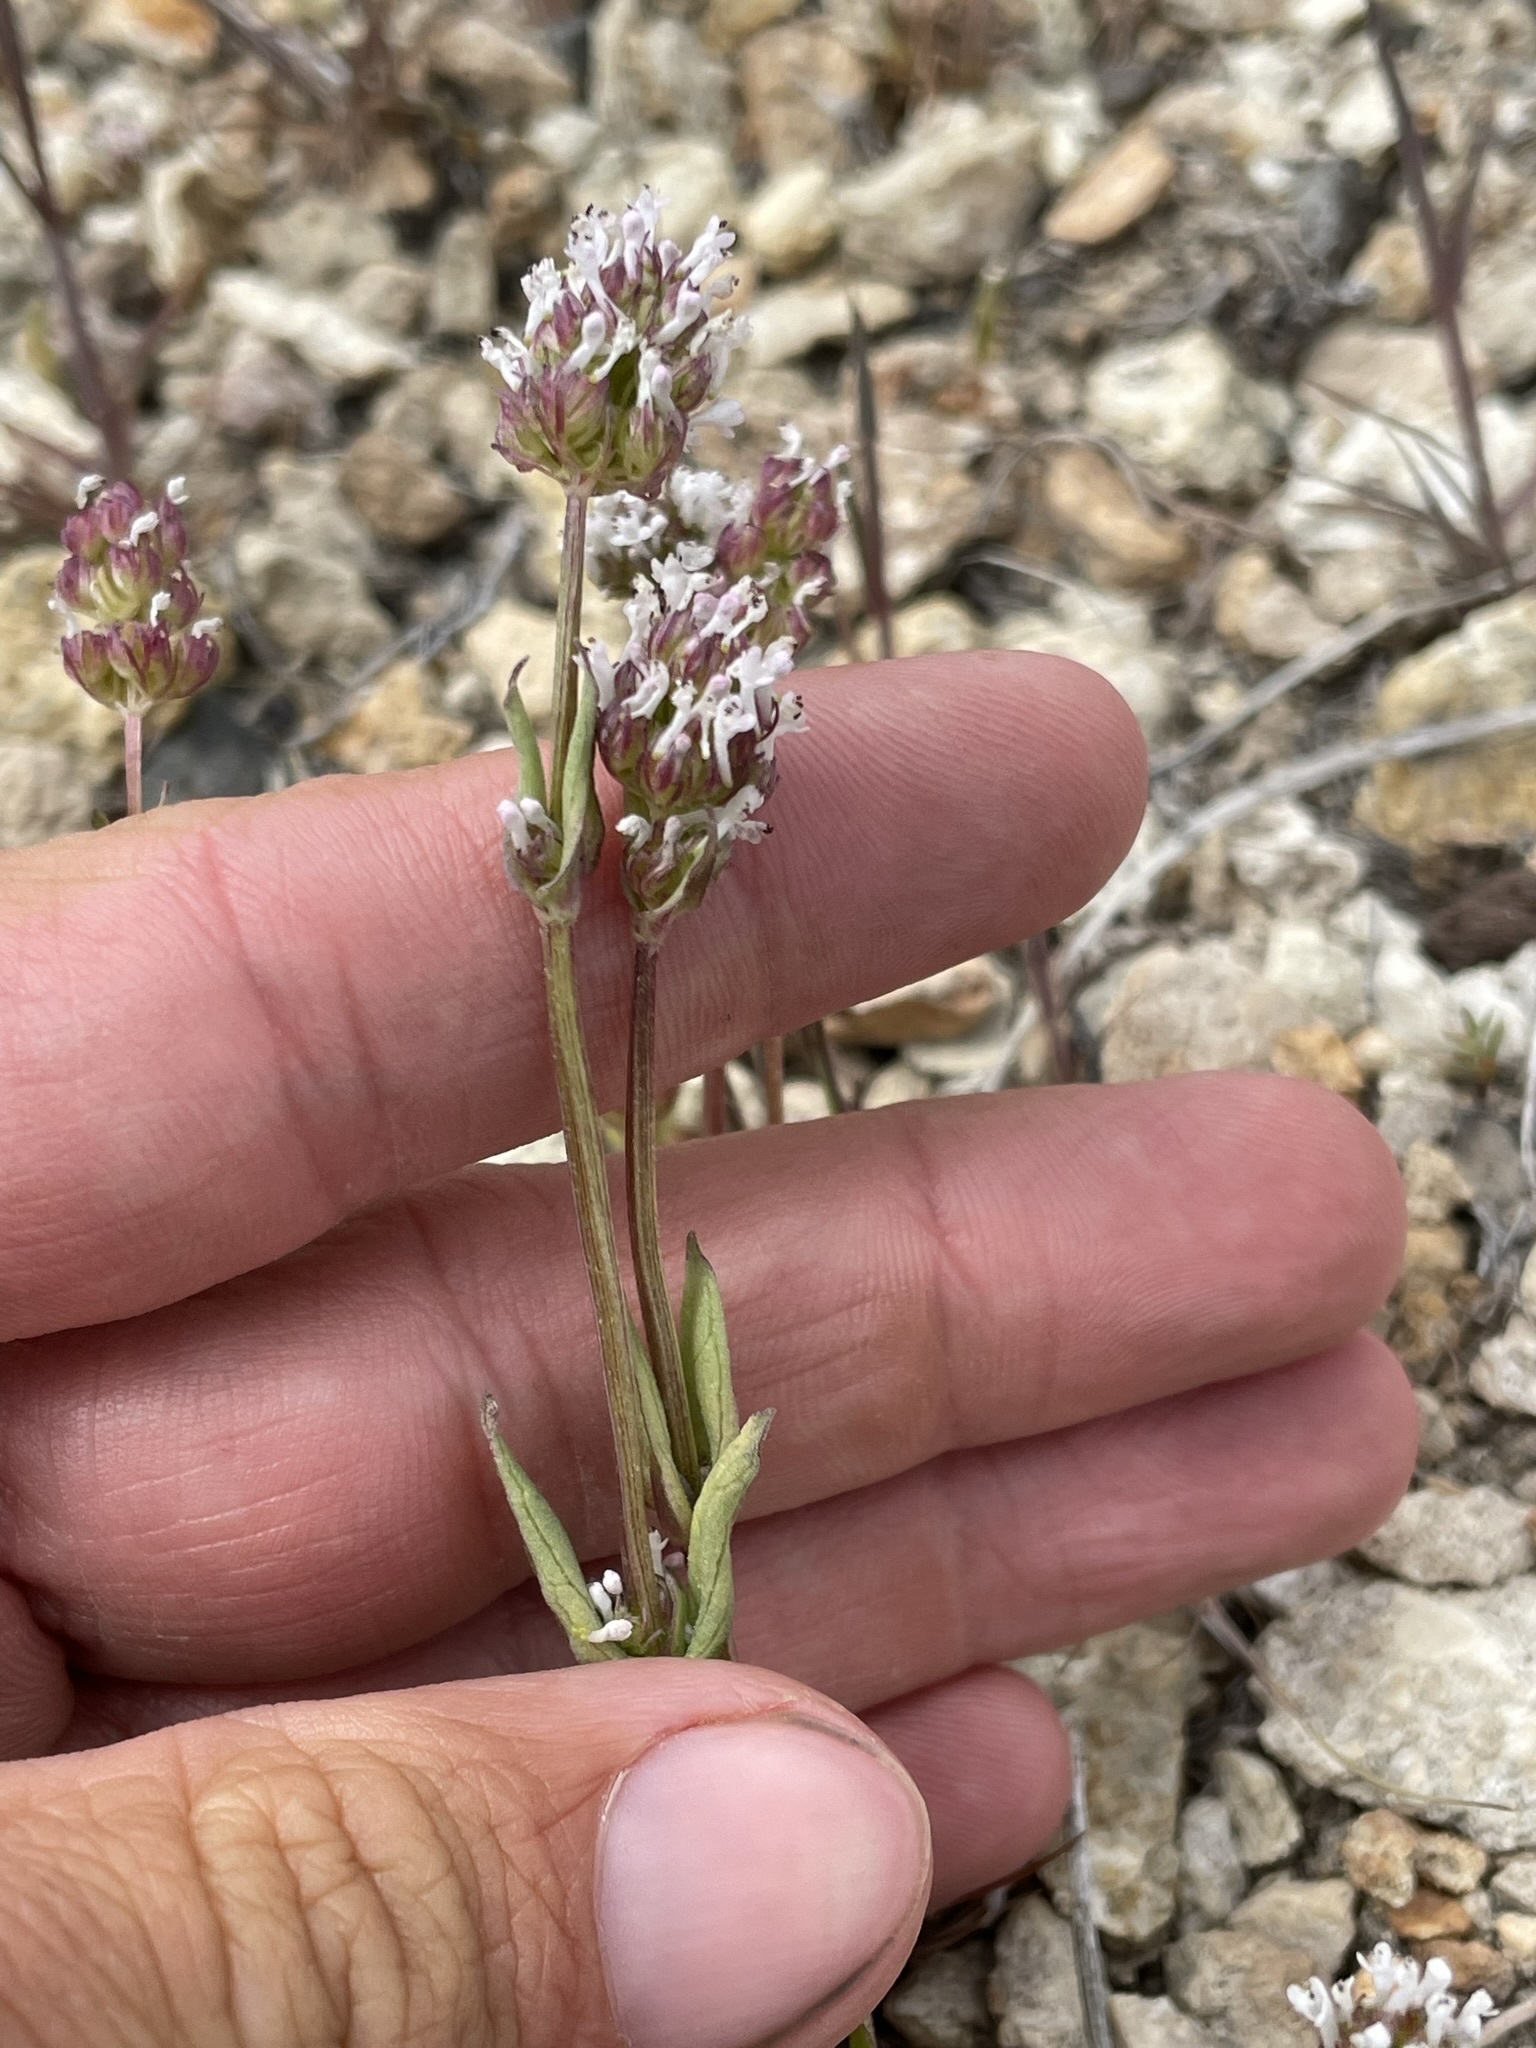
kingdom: Plantae
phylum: Tracheophyta
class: Magnoliopsida
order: Dipsacales
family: Caprifoliaceae
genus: Plectritis
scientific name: Plectritis macroptera
